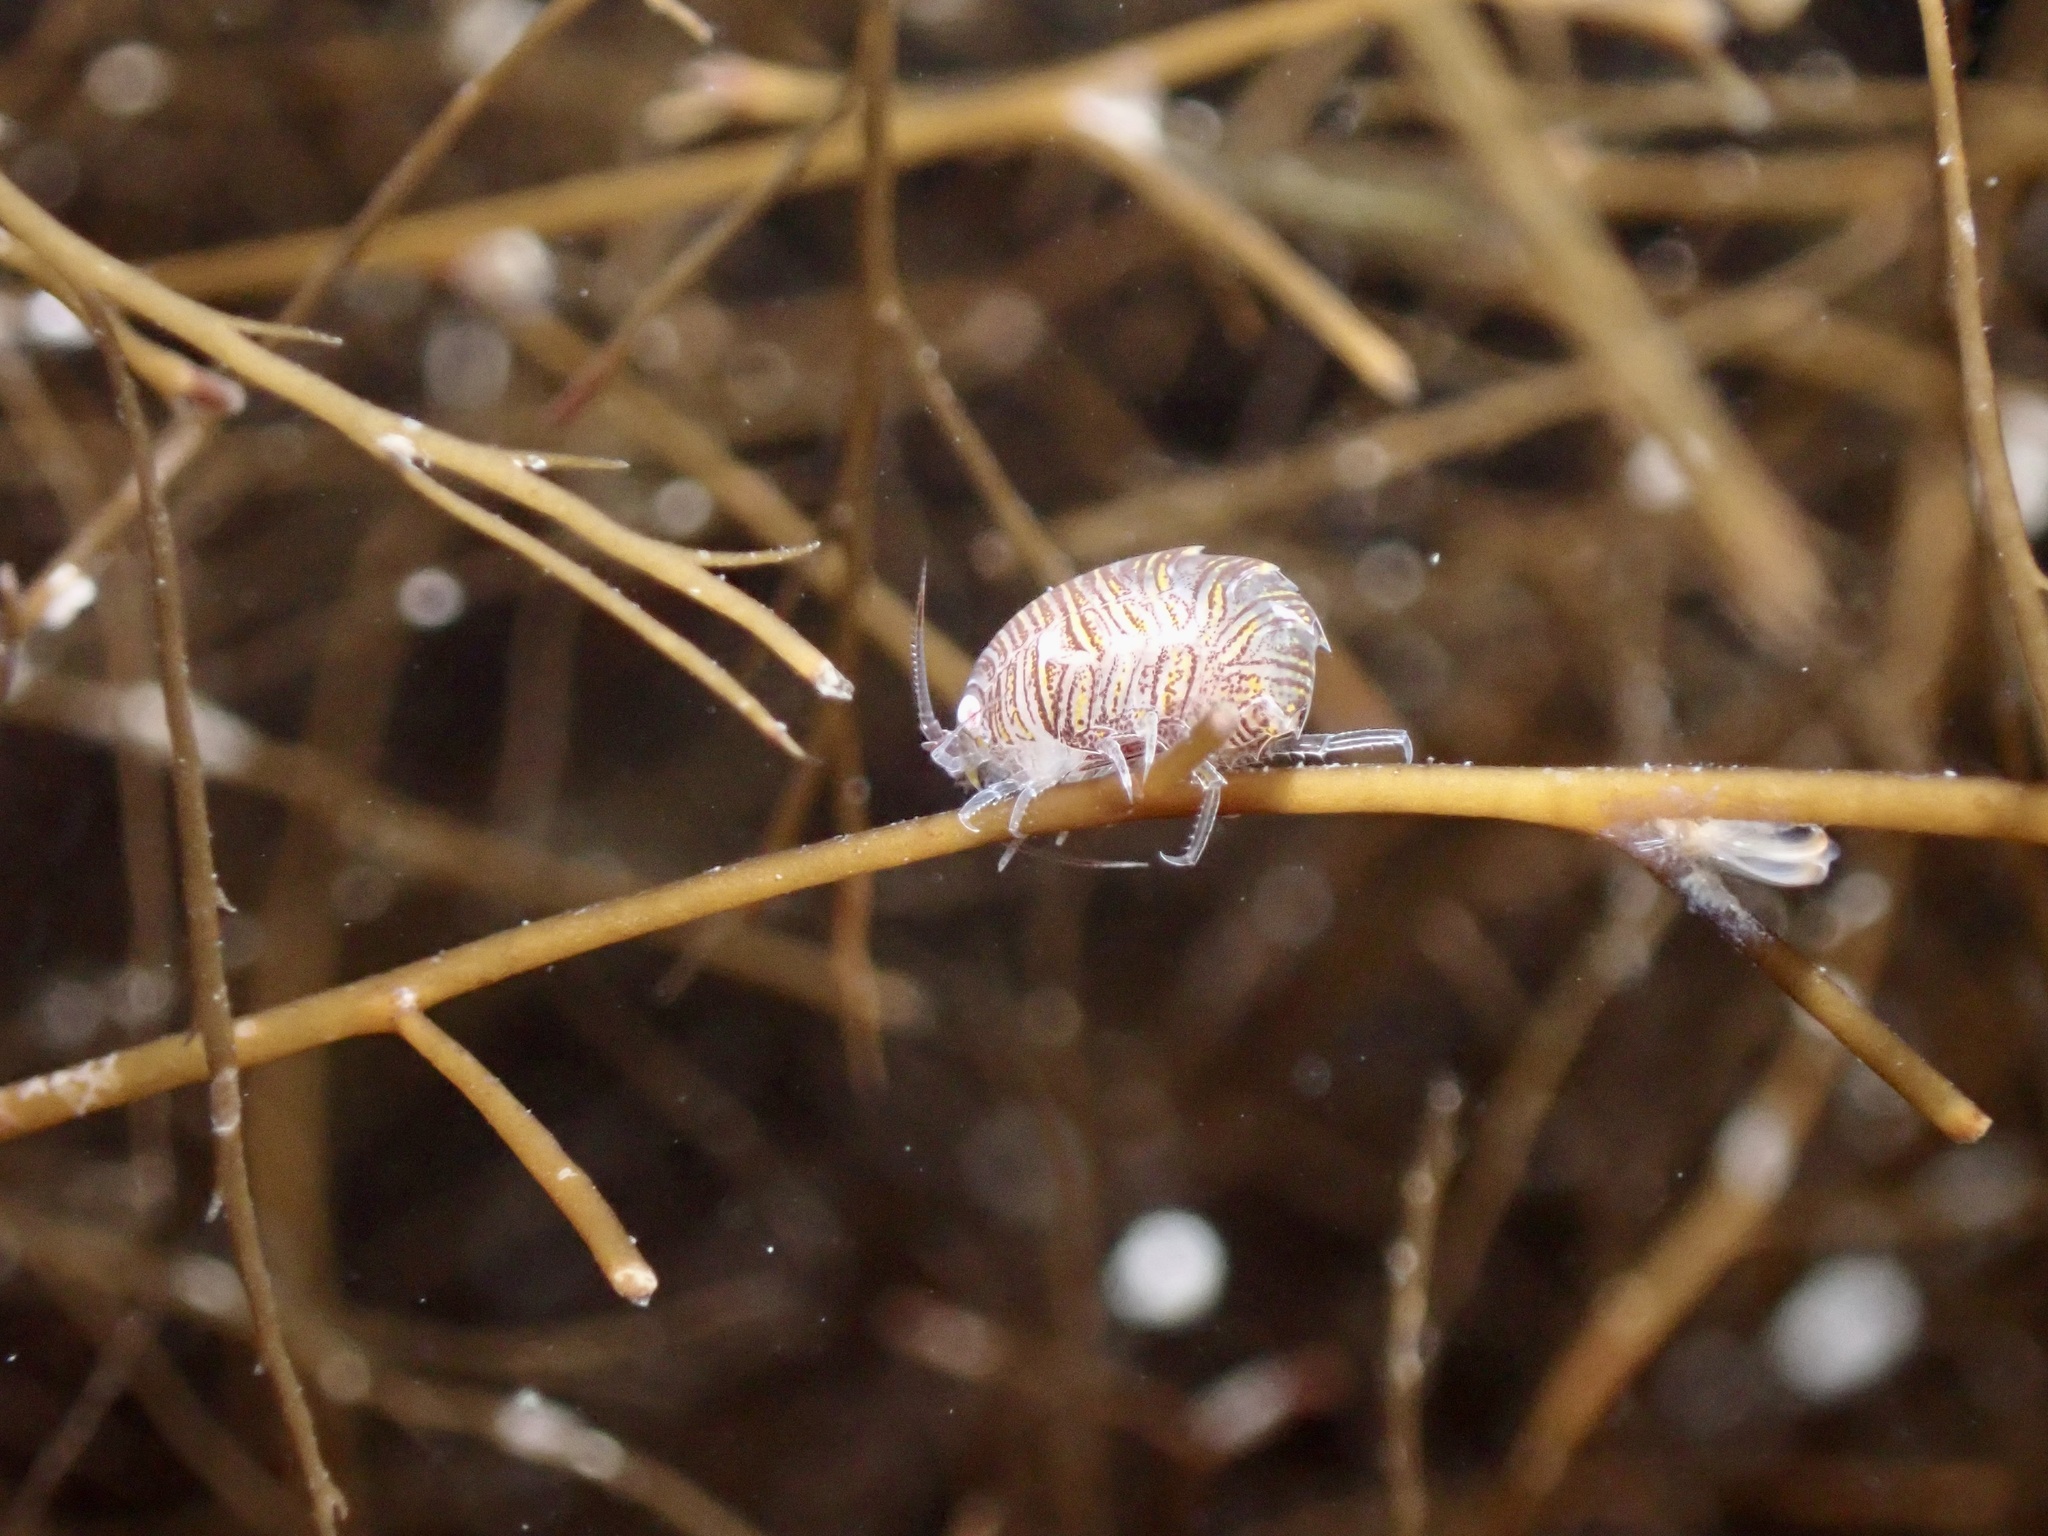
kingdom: Animalia
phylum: Arthropoda
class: Malacostraca
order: Amphipoda
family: Iphimediidae
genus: Iphimedia
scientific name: Iphimedia obesa
